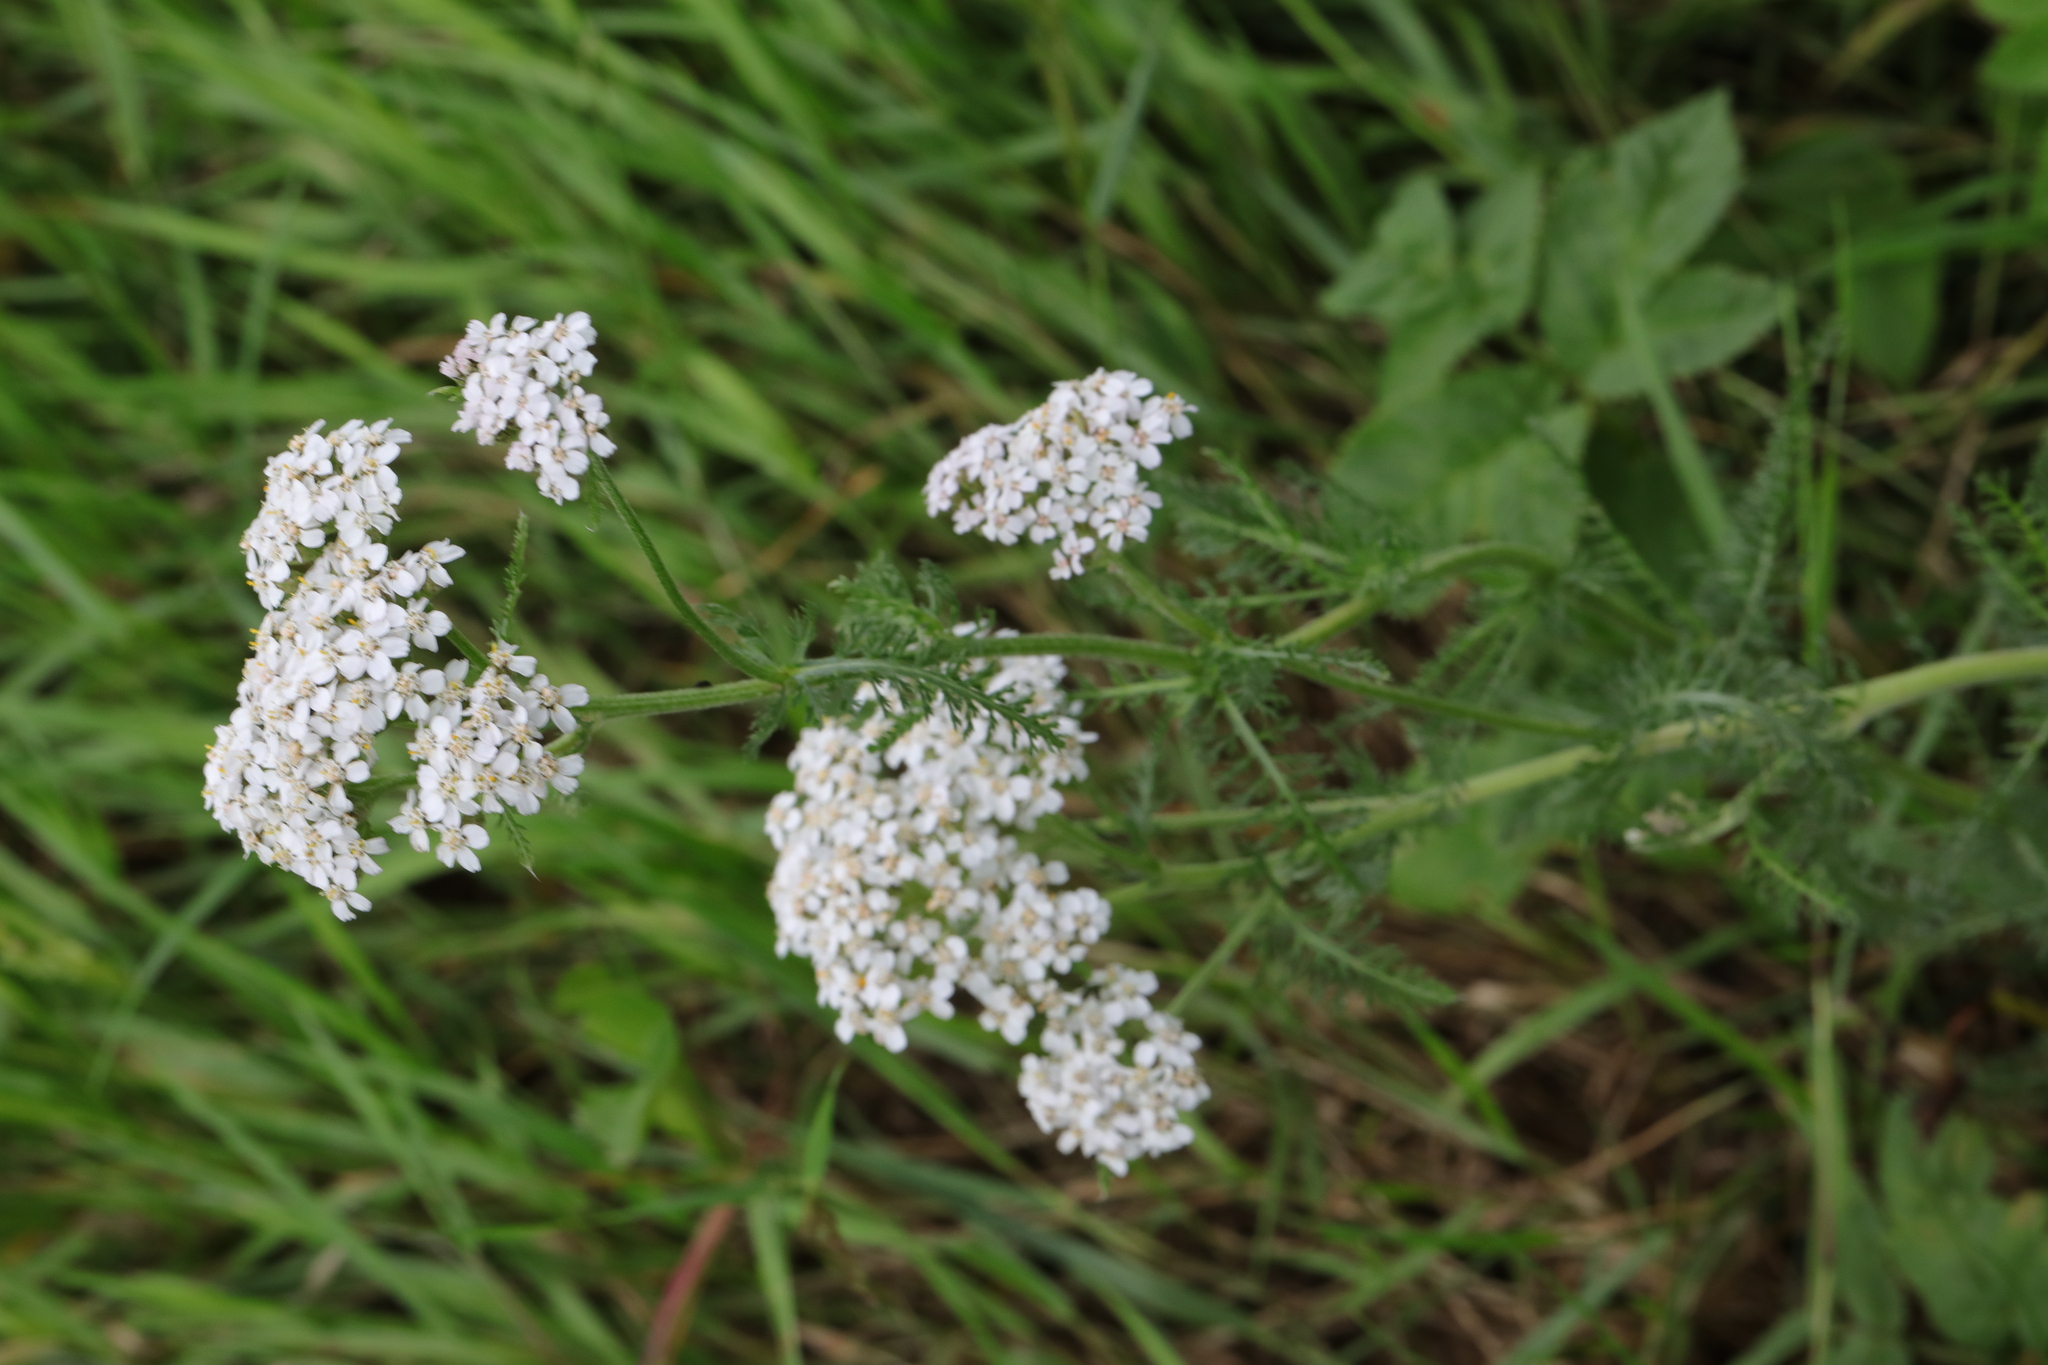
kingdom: Plantae
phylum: Tracheophyta
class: Magnoliopsida
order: Asterales
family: Asteraceae
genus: Achillea
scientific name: Achillea millefolium
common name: Yarrow
